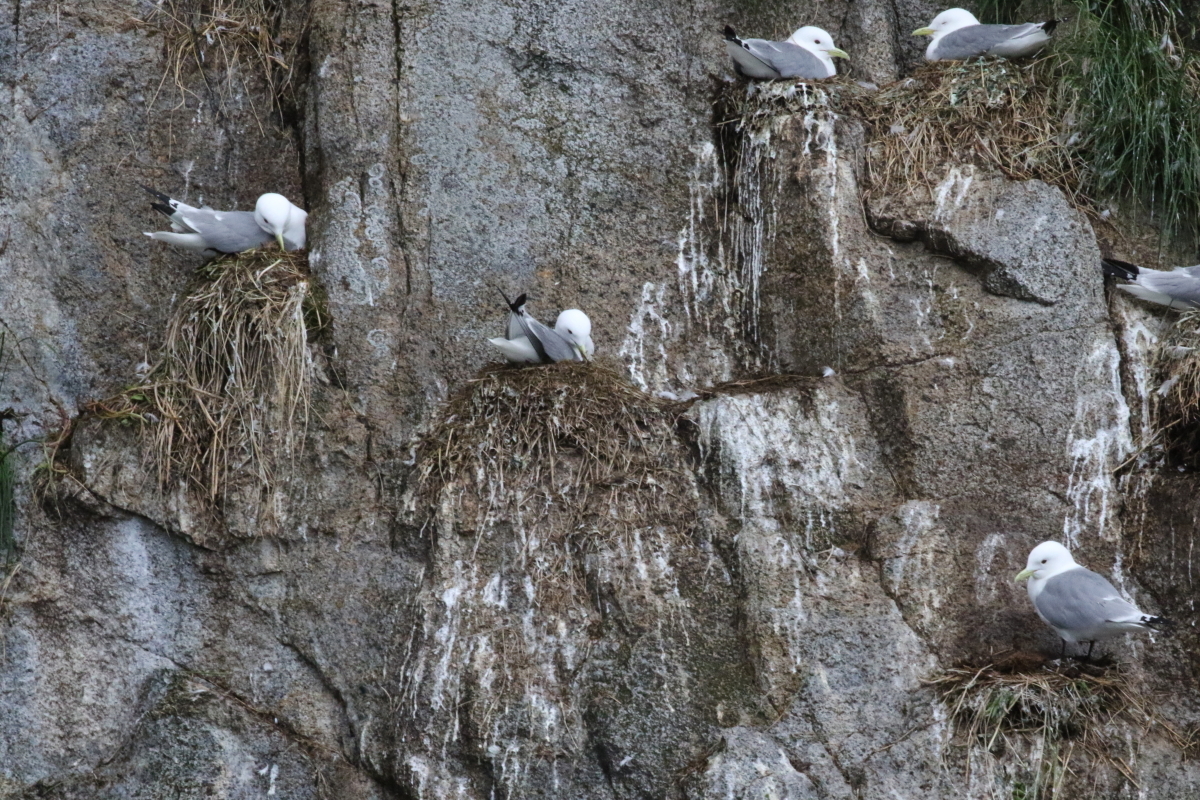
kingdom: Animalia
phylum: Chordata
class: Aves
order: Charadriiformes
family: Laridae
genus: Rissa
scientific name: Rissa tridactyla
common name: Black-legged kittiwake
